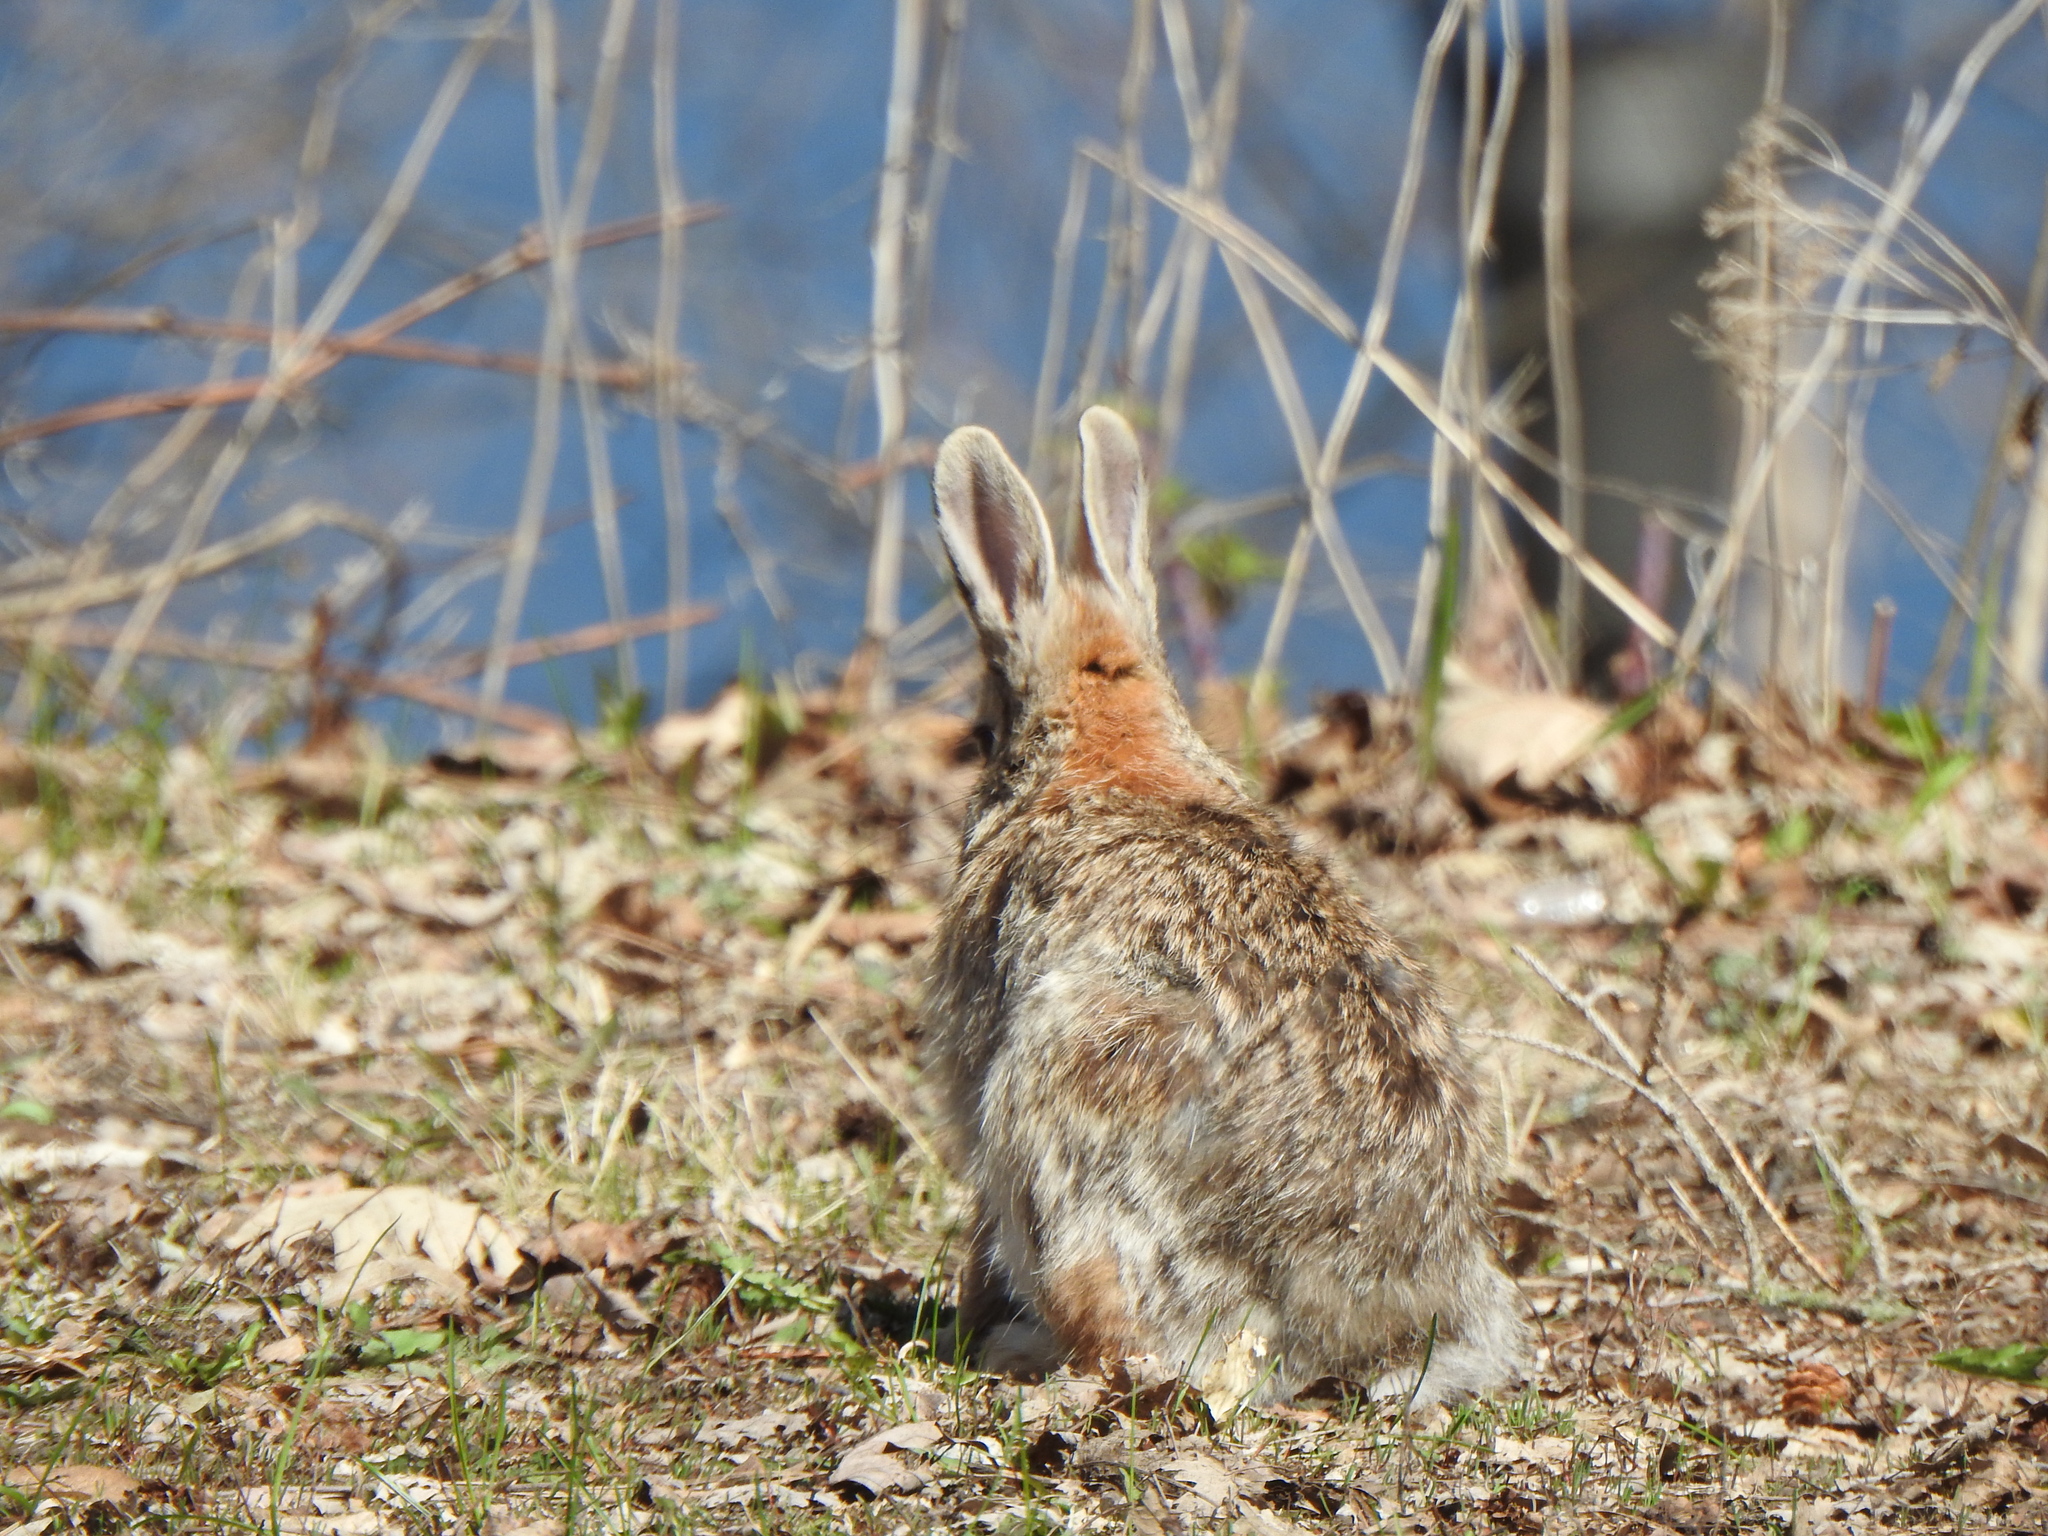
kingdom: Animalia
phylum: Chordata
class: Mammalia
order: Lagomorpha
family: Leporidae
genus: Sylvilagus
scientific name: Sylvilagus floridanus
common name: Eastern cottontail
